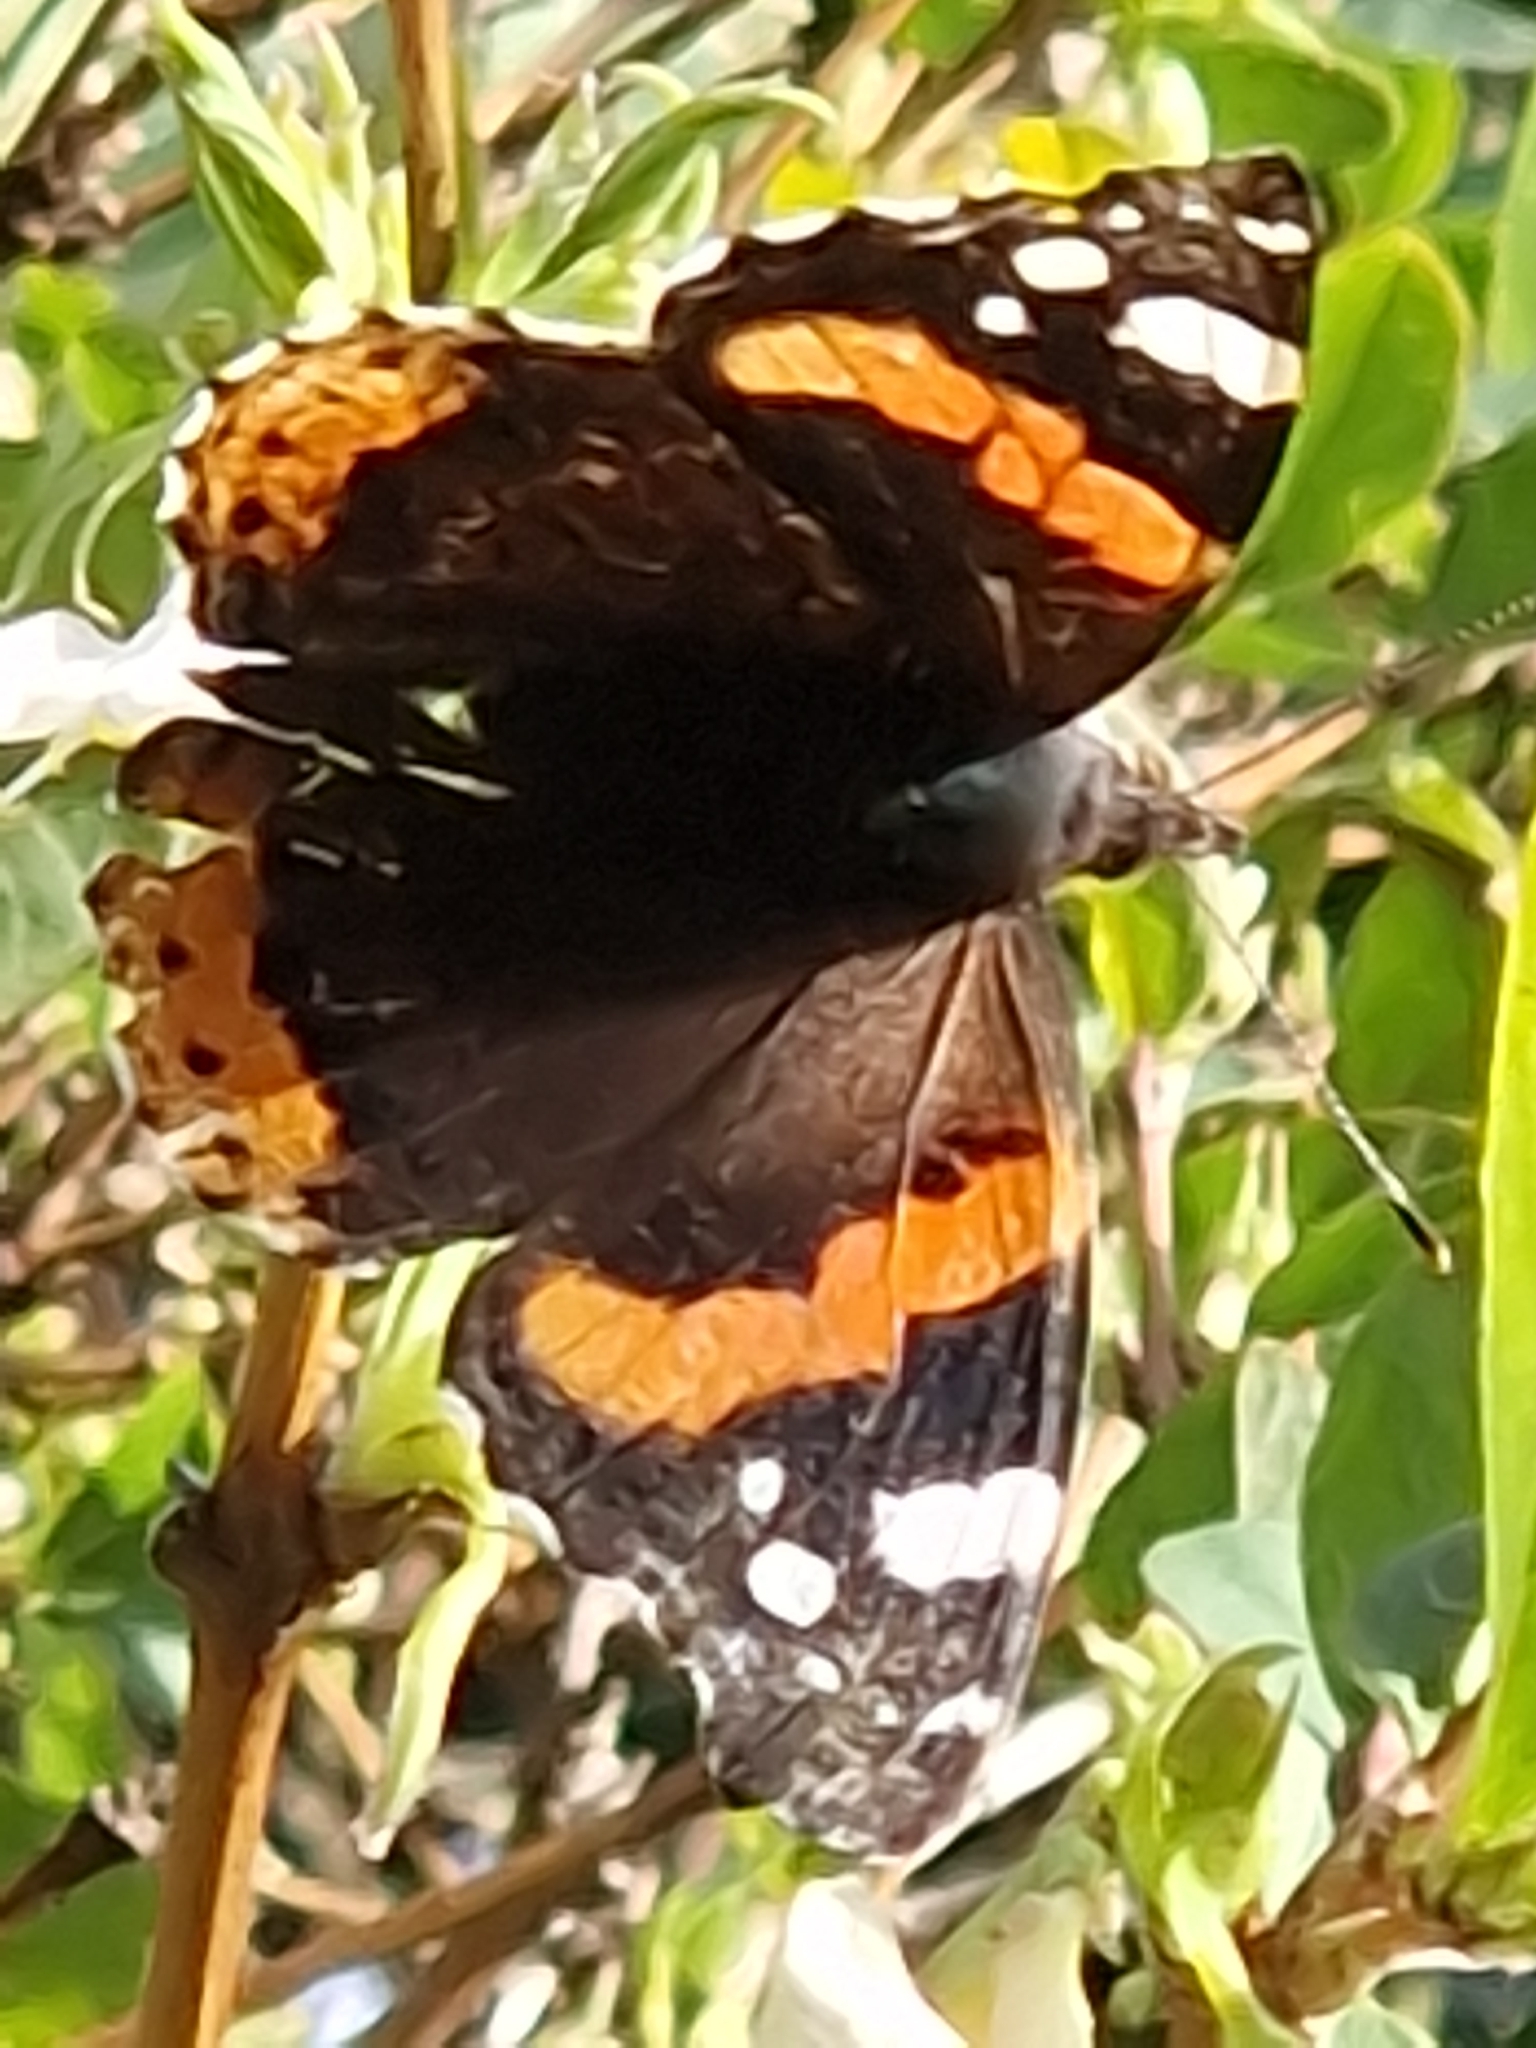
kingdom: Animalia
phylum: Arthropoda
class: Insecta
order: Lepidoptera
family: Nymphalidae
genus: Vanessa
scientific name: Vanessa atalanta
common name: Red admiral
